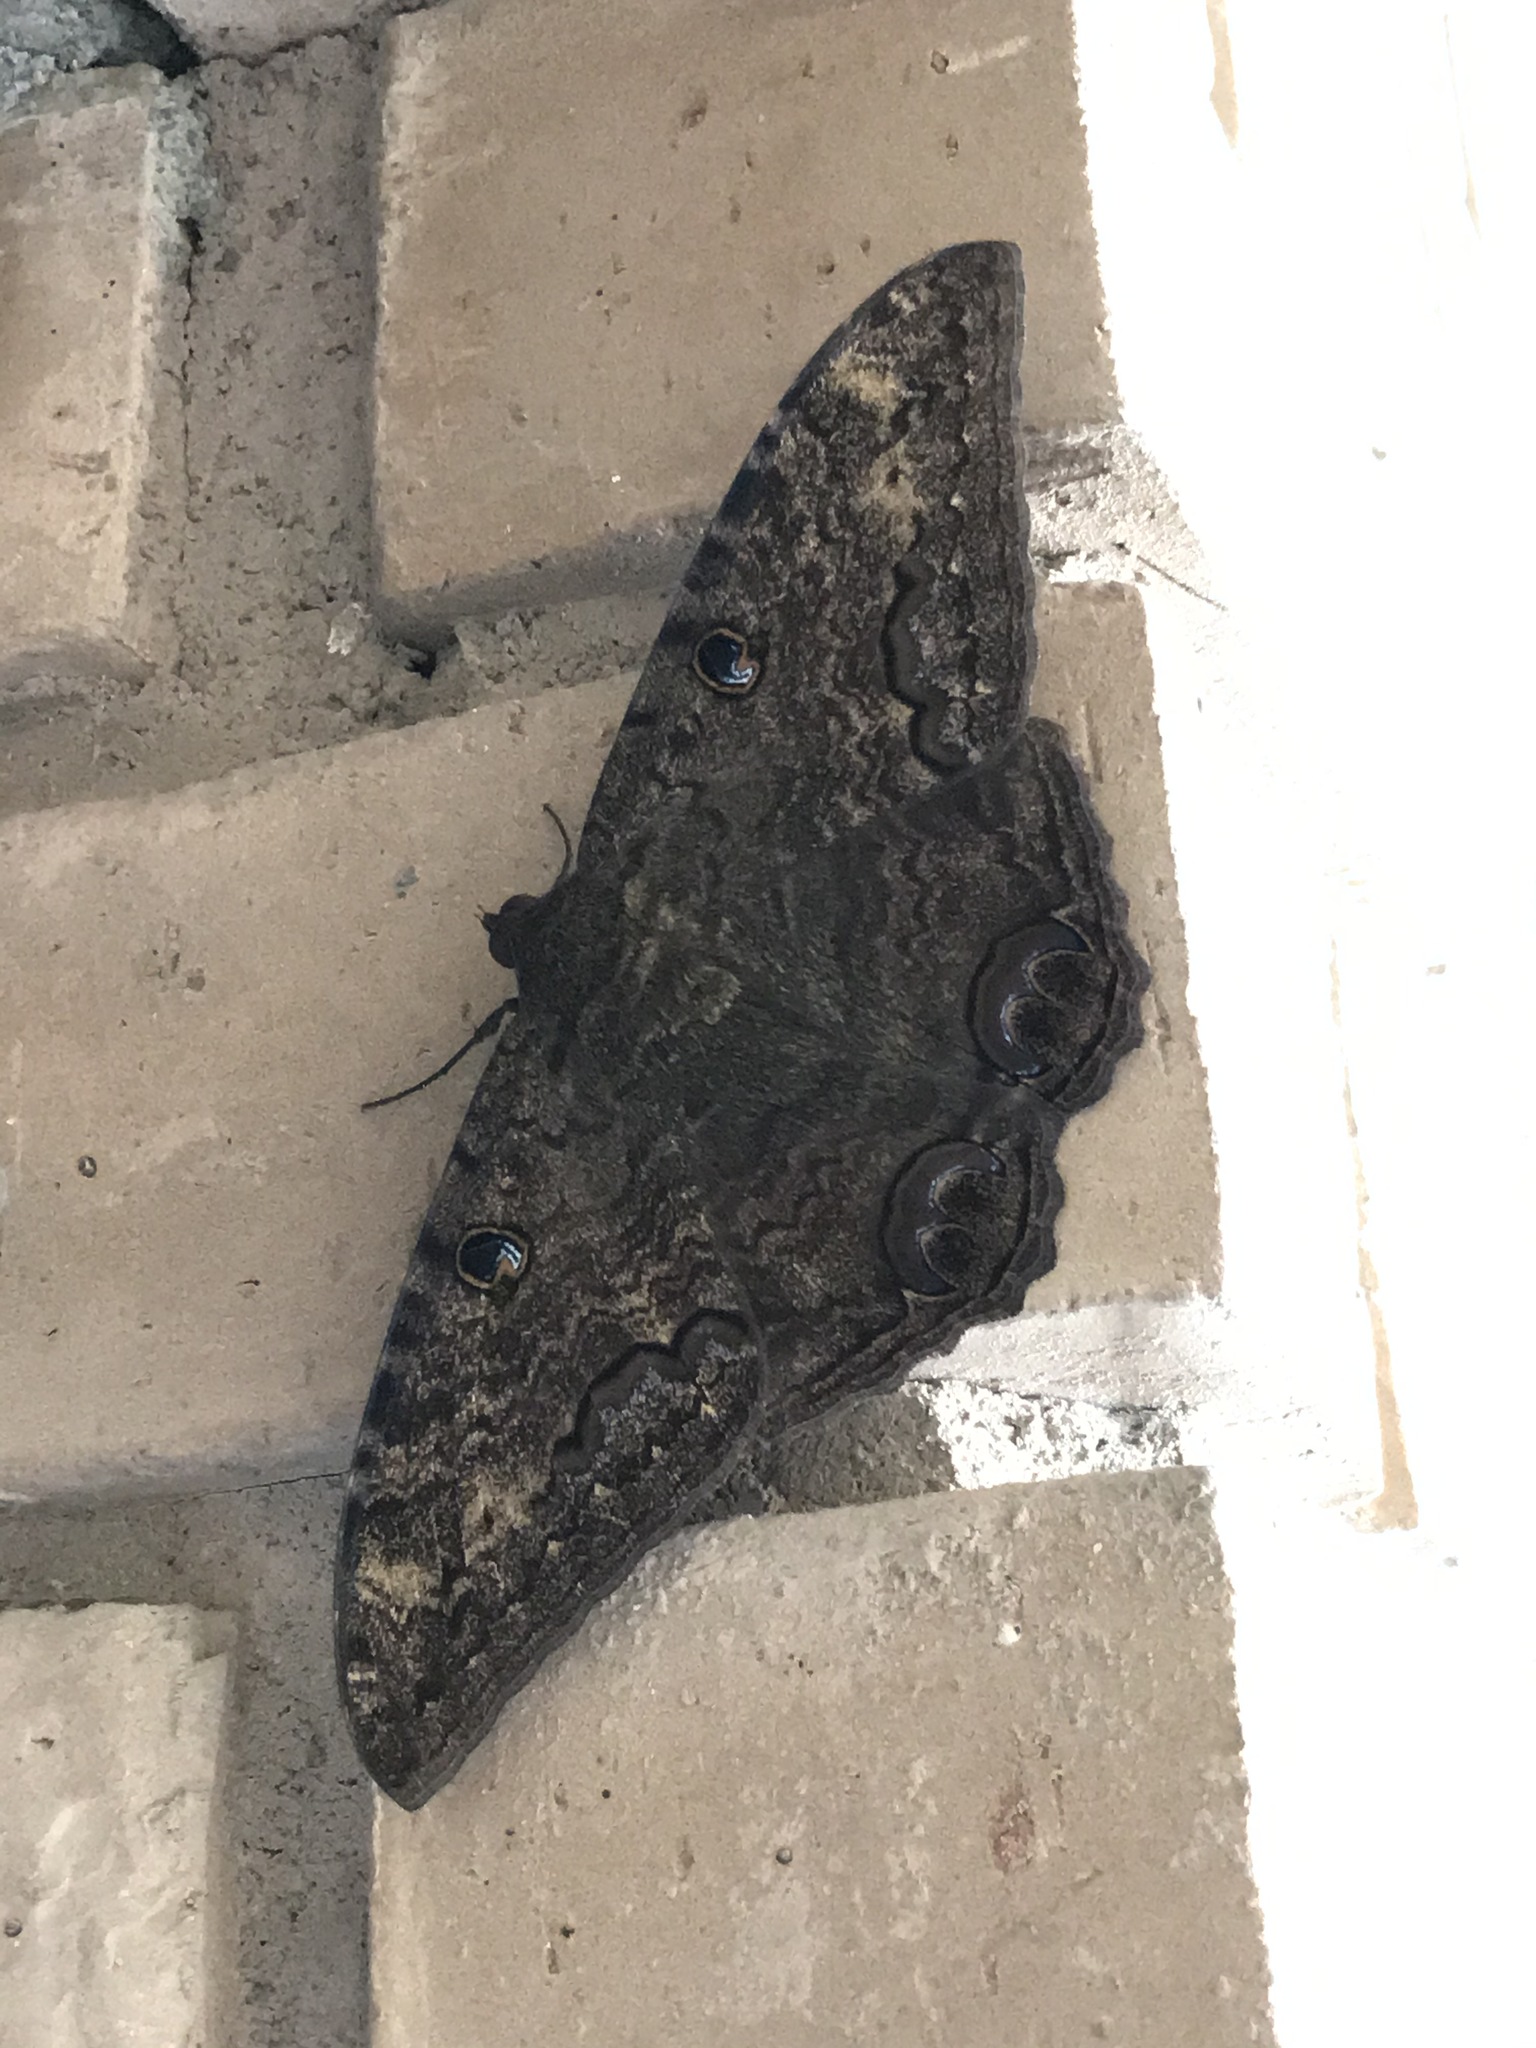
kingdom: Animalia
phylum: Arthropoda
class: Insecta
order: Lepidoptera
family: Erebidae
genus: Ascalapha
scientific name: Ascalapha odorata
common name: Black witch
